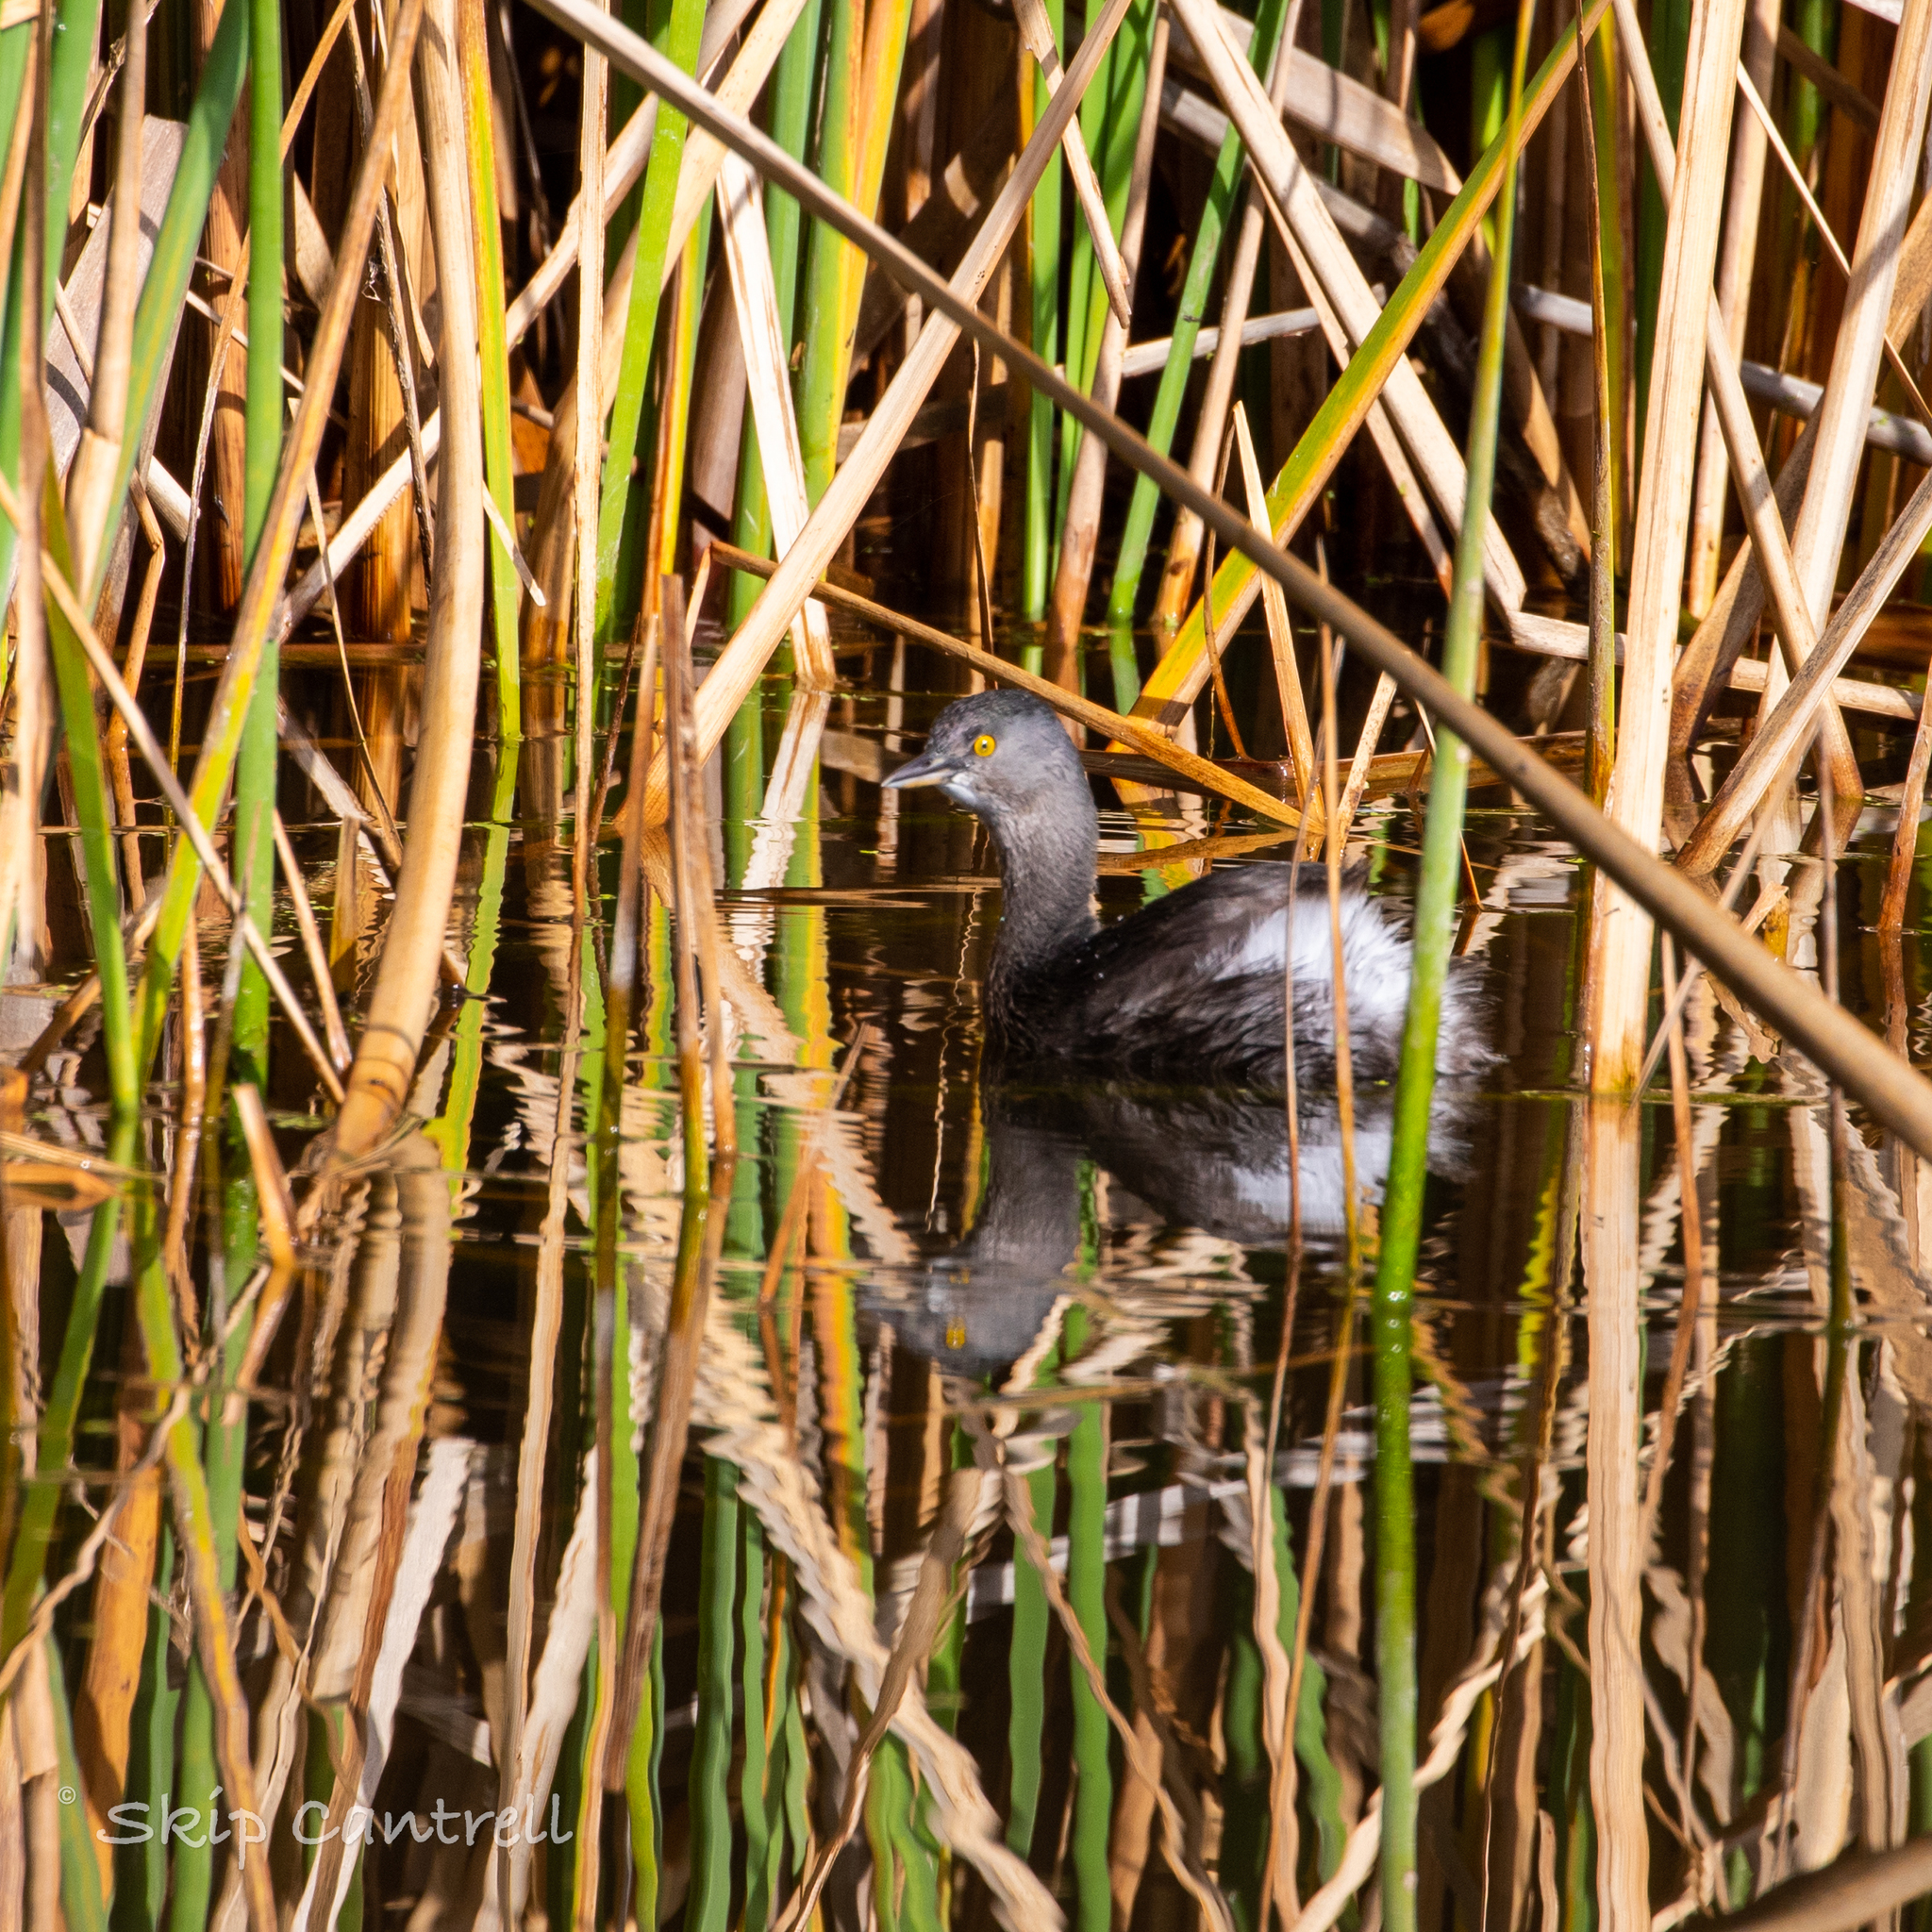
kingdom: Animalia
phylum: Chordata
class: Aves
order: Podicipediformes
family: Podicipedidae
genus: Tachybaptus
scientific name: Tachybaptus dominicus
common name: Least grebe
